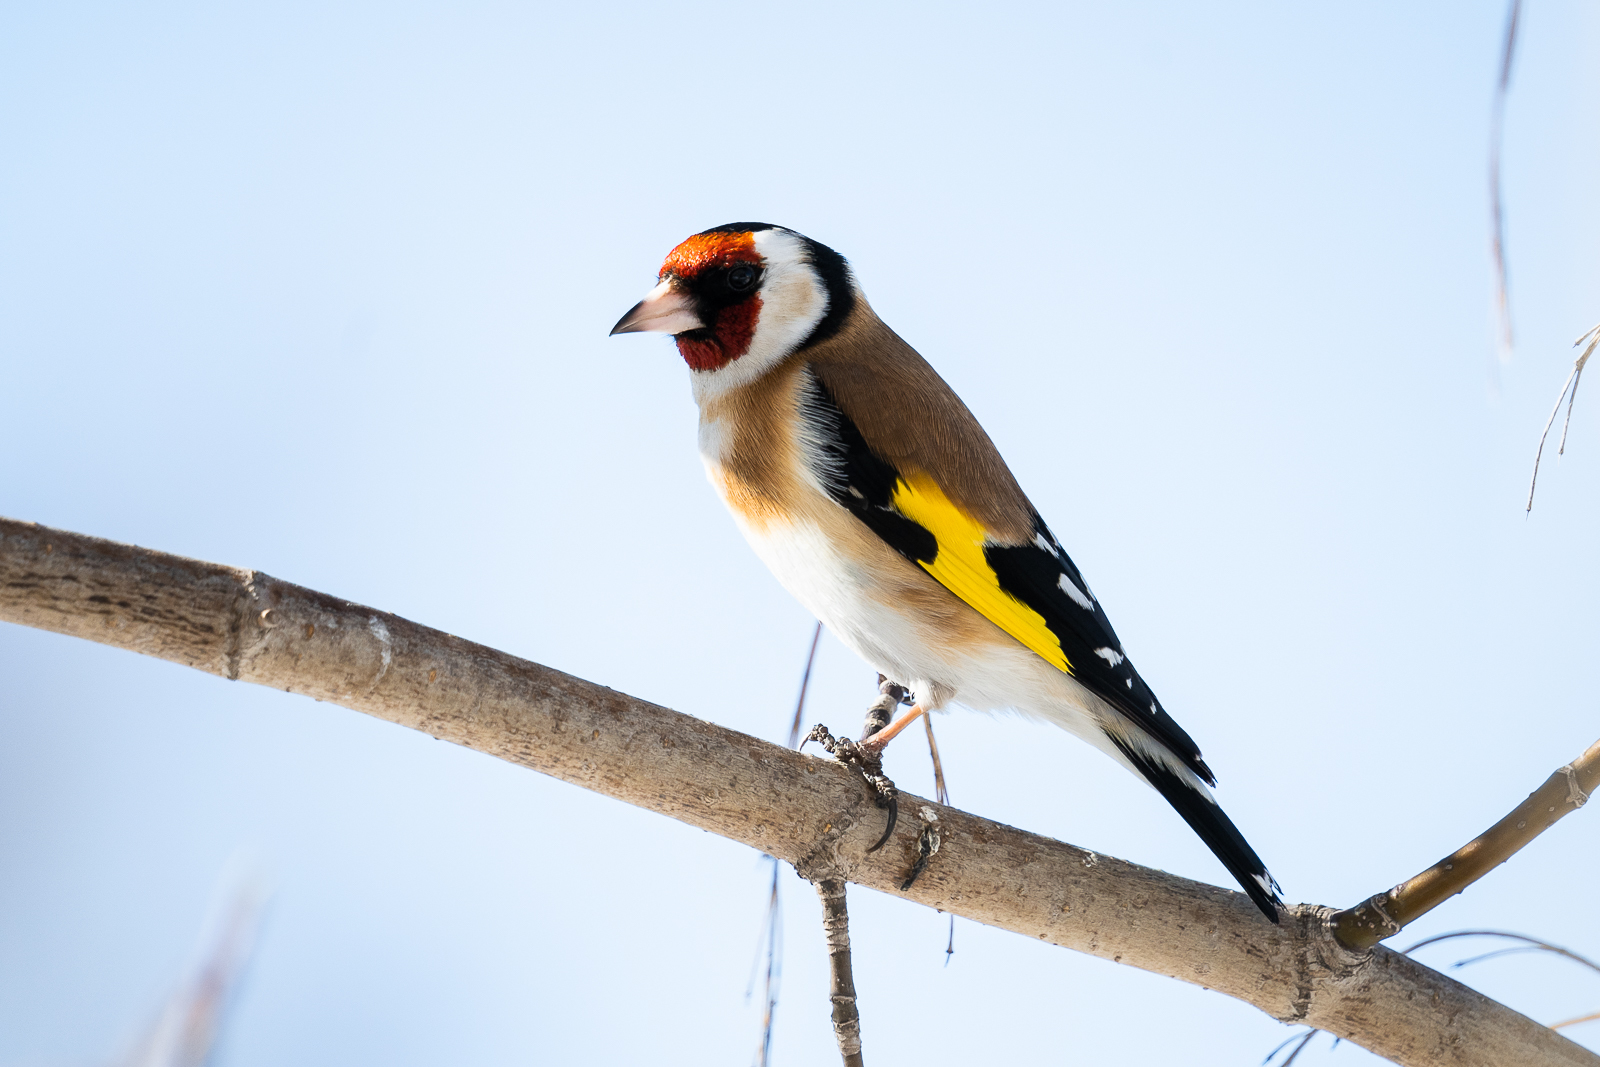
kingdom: Animalia
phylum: Chordata
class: Aves
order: Passeriformes
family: Fringillidae
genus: Carduelis
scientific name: Carduelis carduelis
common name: European goldfinch
